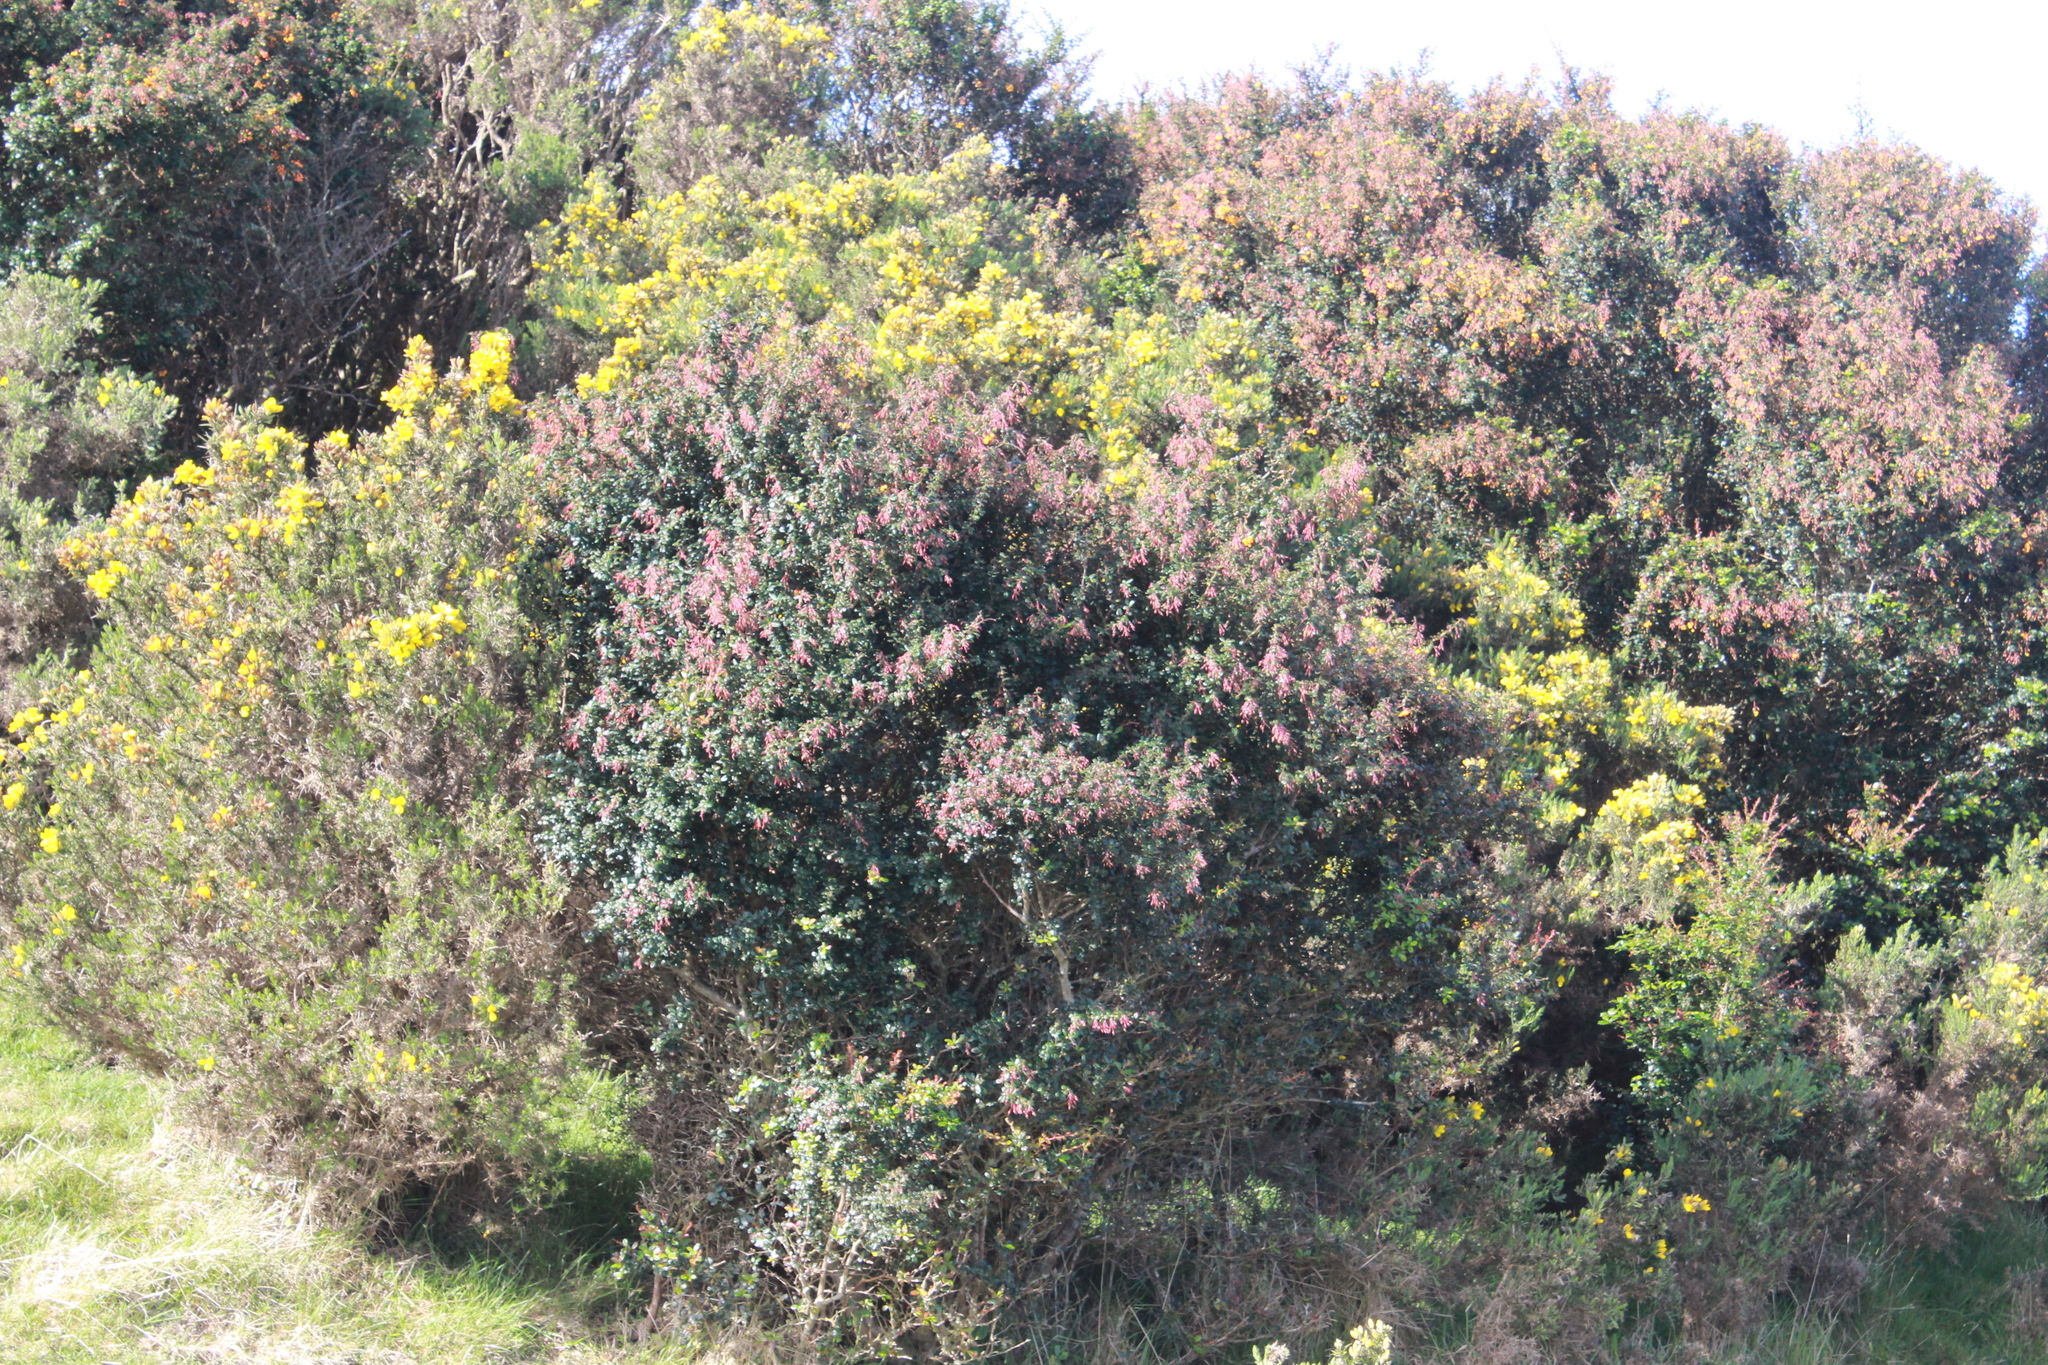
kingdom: Plantae
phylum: Tracheophyta
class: Magnoliopsida
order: Ranunculales
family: Berberidaceae
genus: Berberis
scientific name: Berberis darwinii
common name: Darwin's barberry
